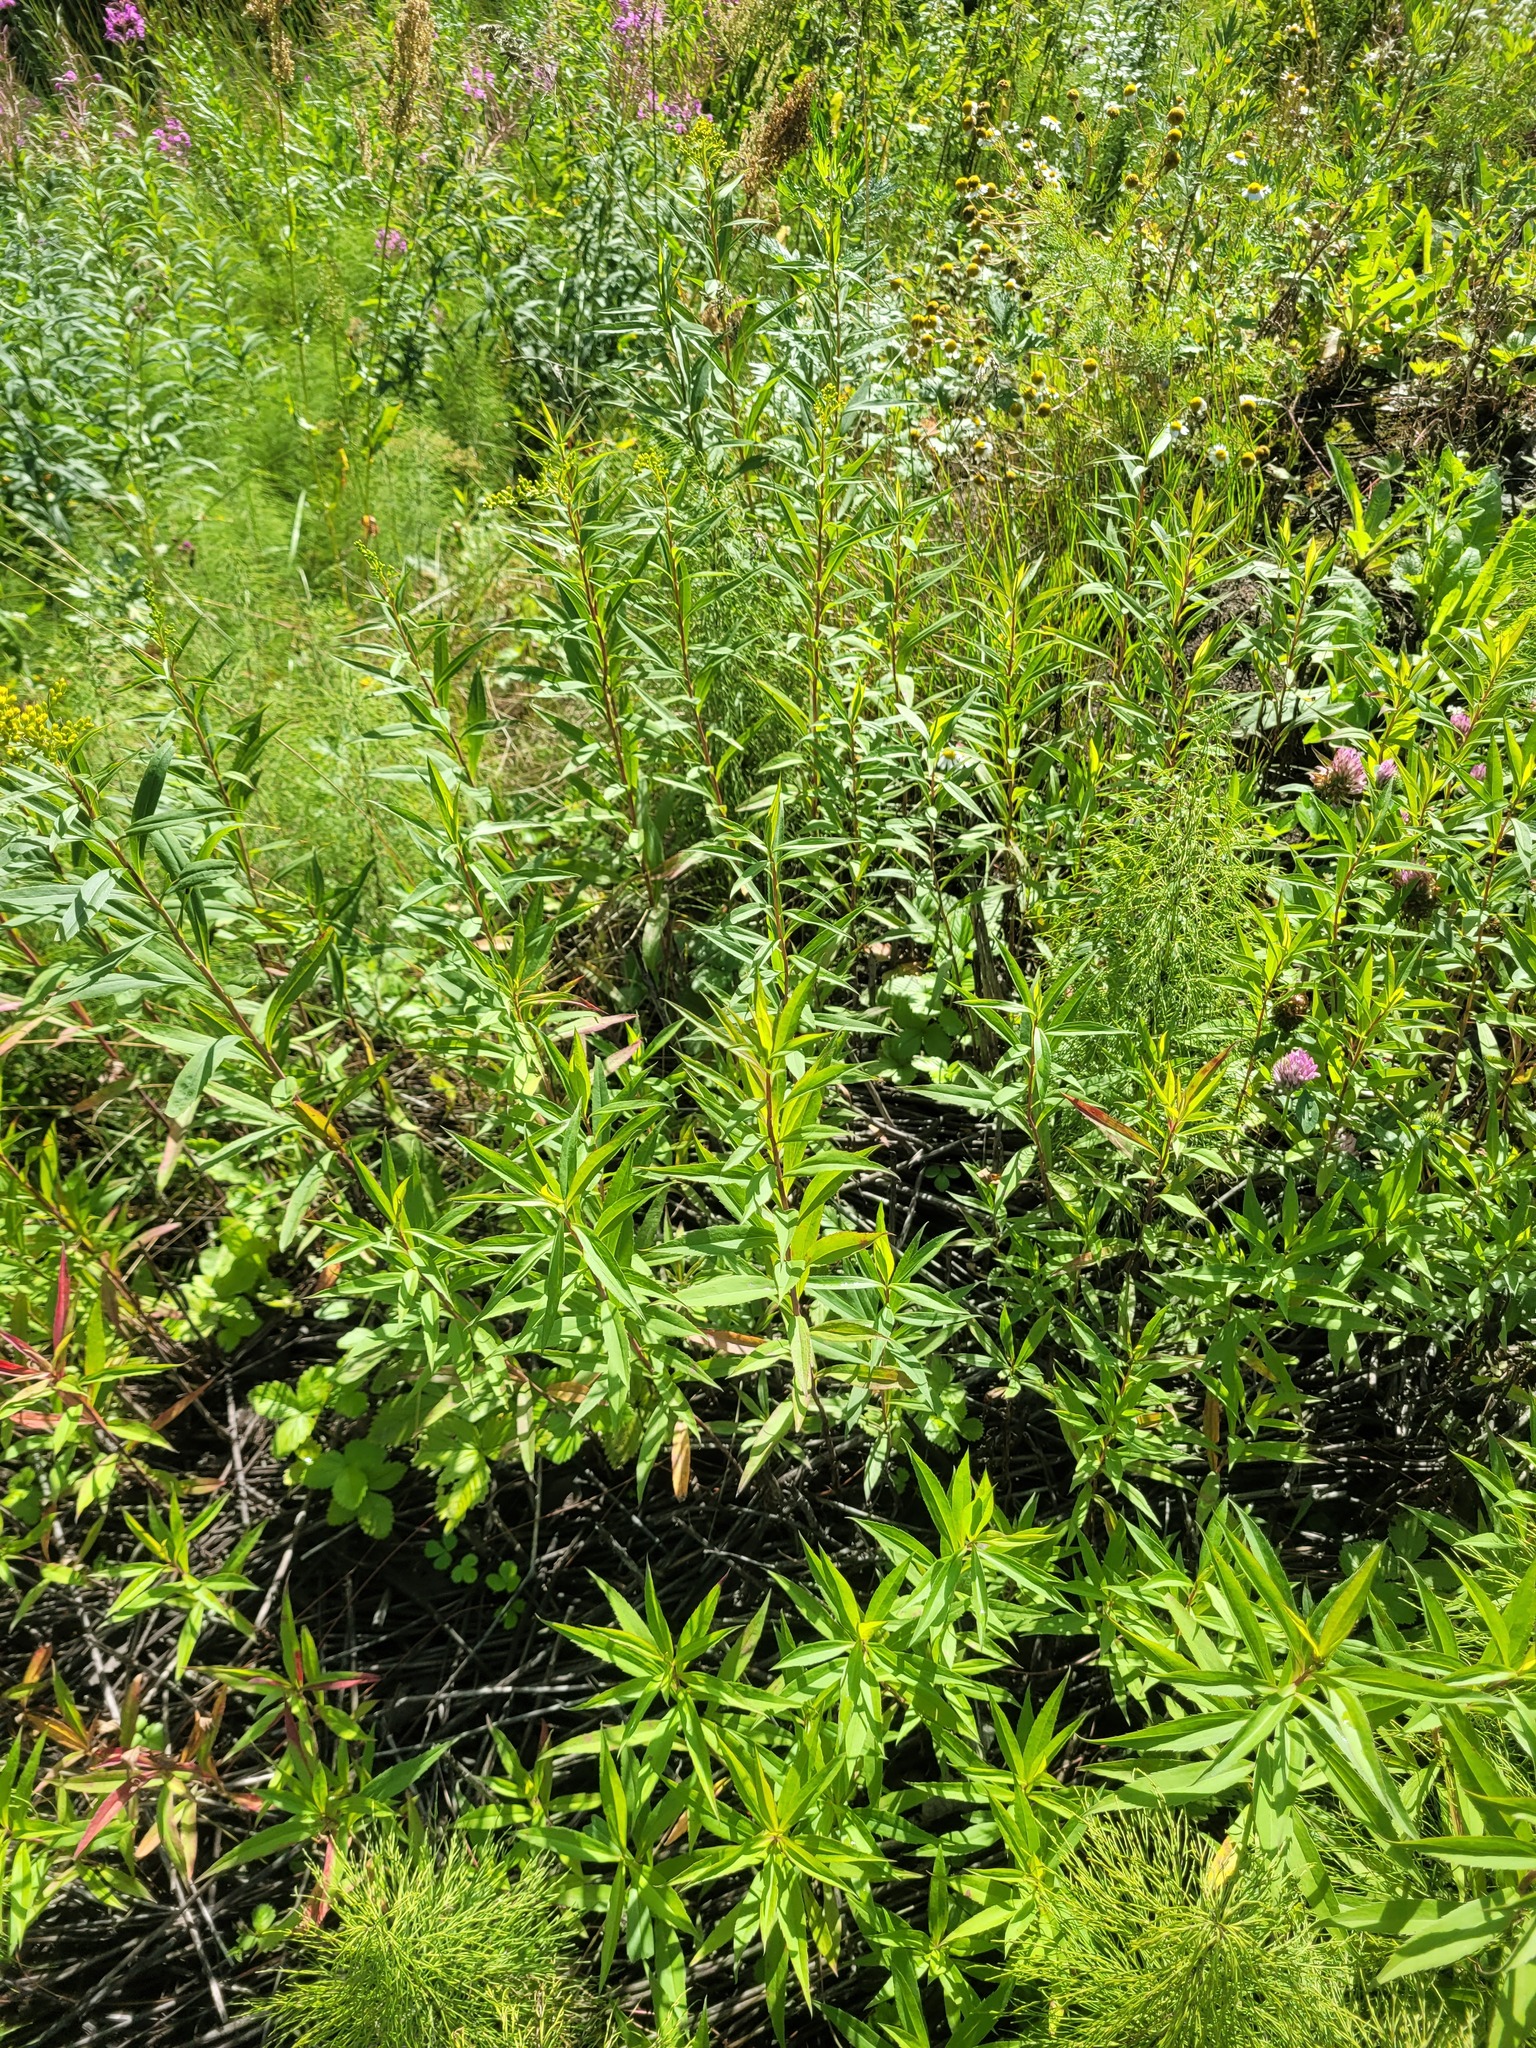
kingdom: Plantae
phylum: Tracheophyta
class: Magnoliopsida
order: Asterales
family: Asteraceae
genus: Solidago
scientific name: Solidago gigantea
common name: Giant goldenrod
